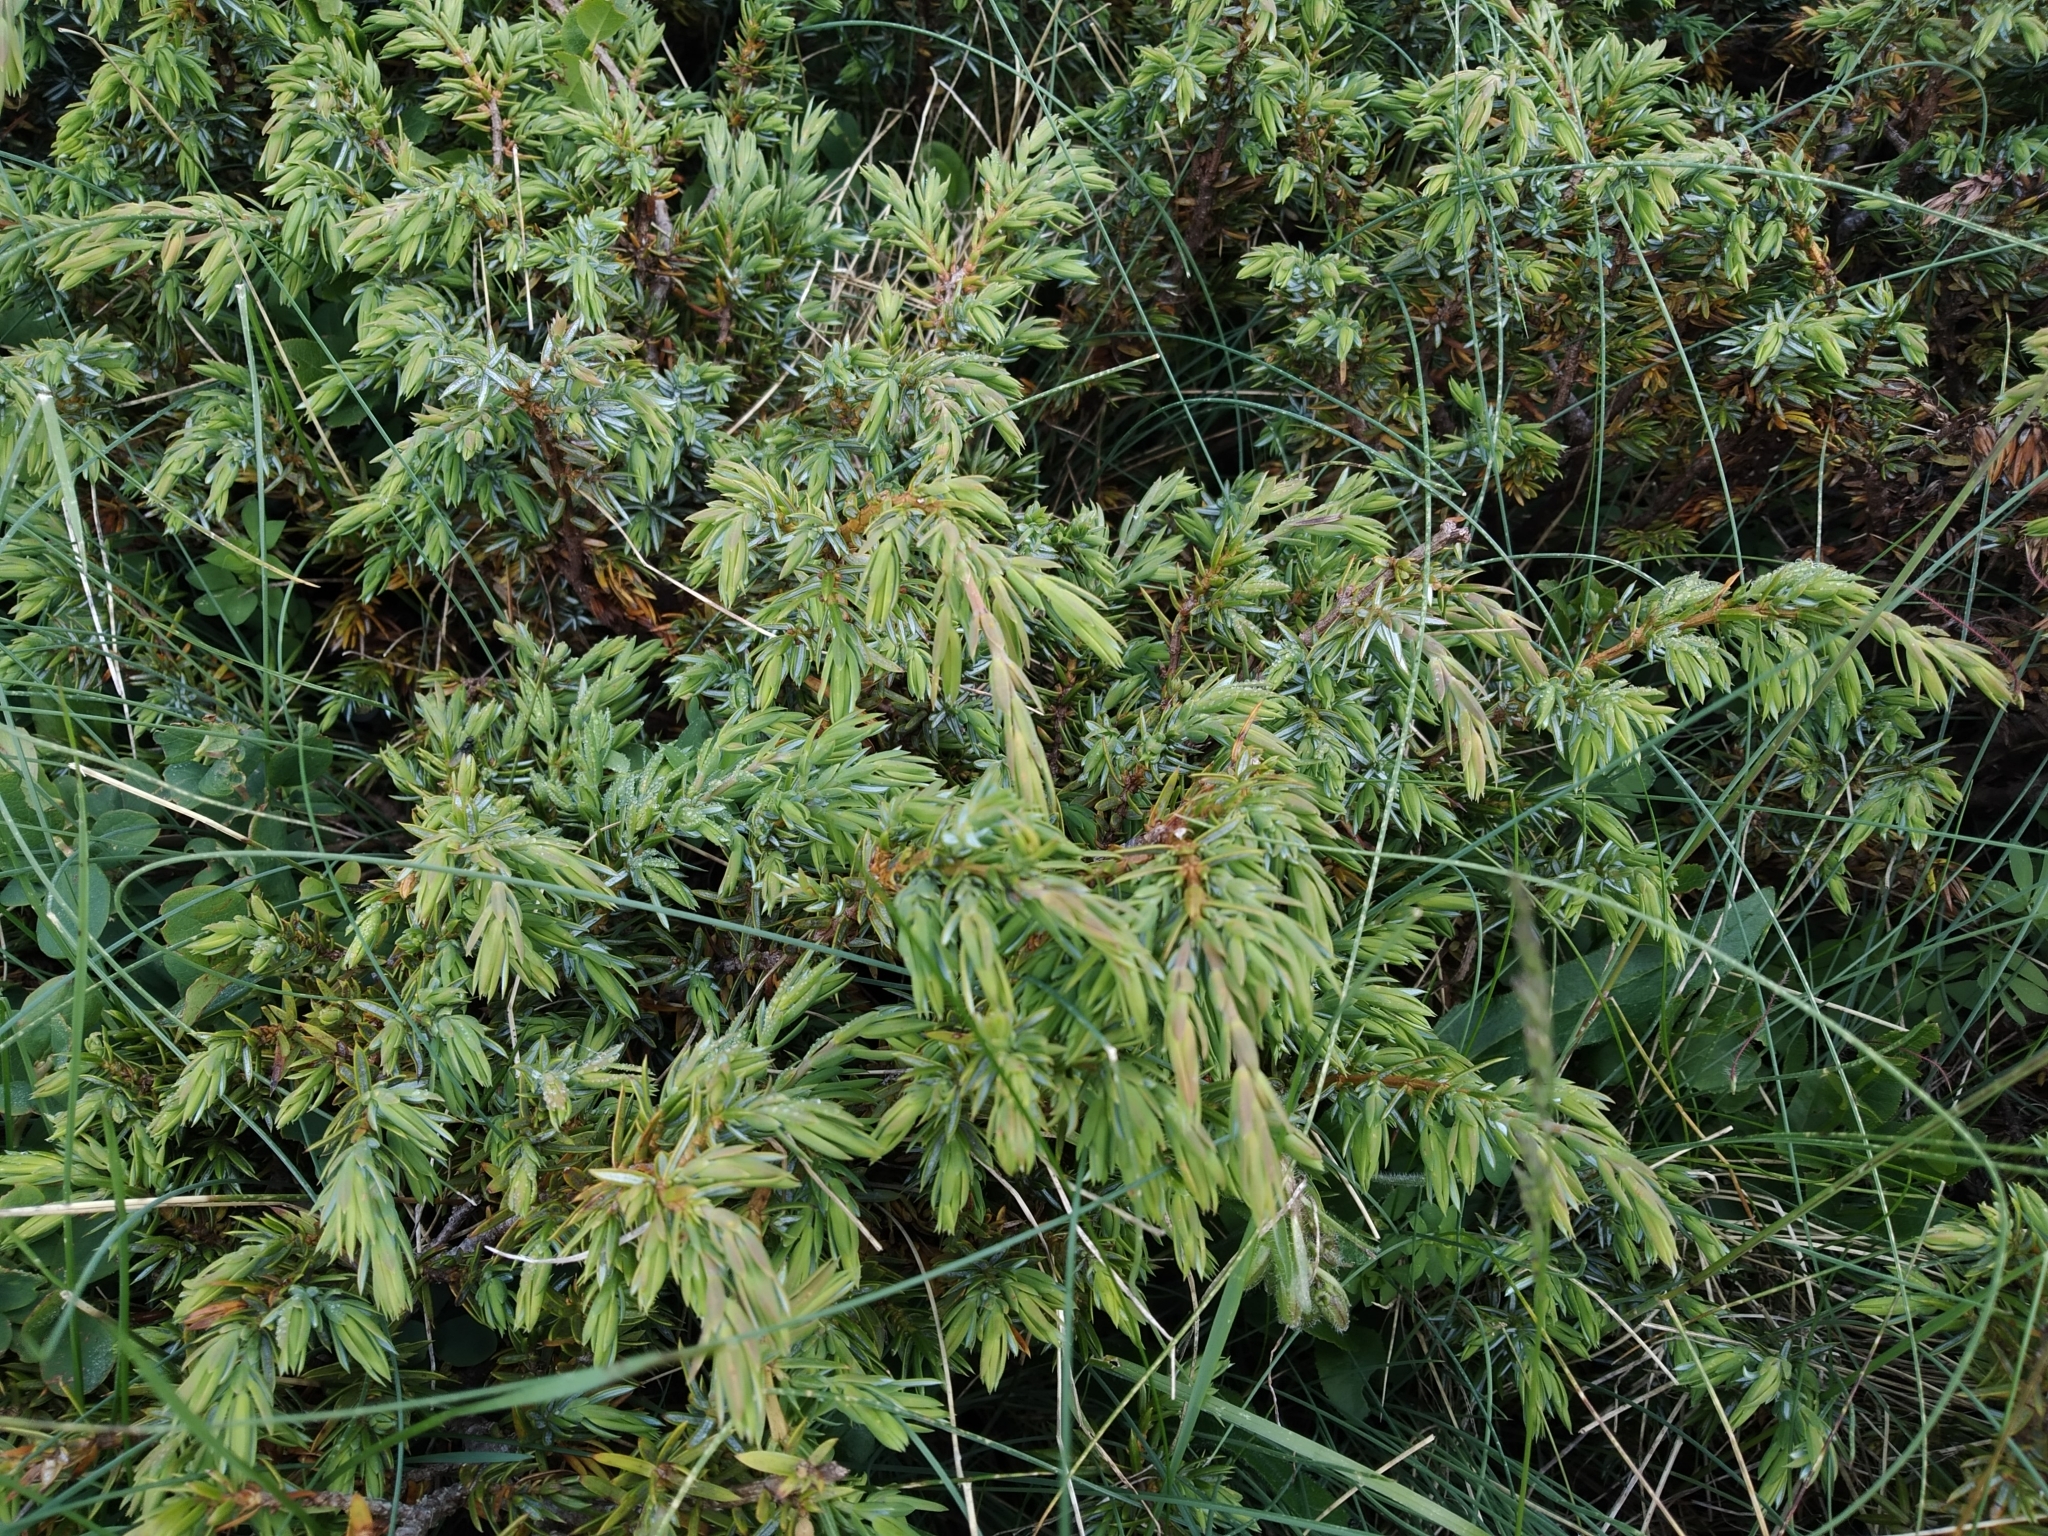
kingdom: Plantae
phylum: Tracheophyta
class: Pinopsida
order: Pinales
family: Cupressaceae
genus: Juniperus
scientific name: Juniperus communis
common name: Common juniper
